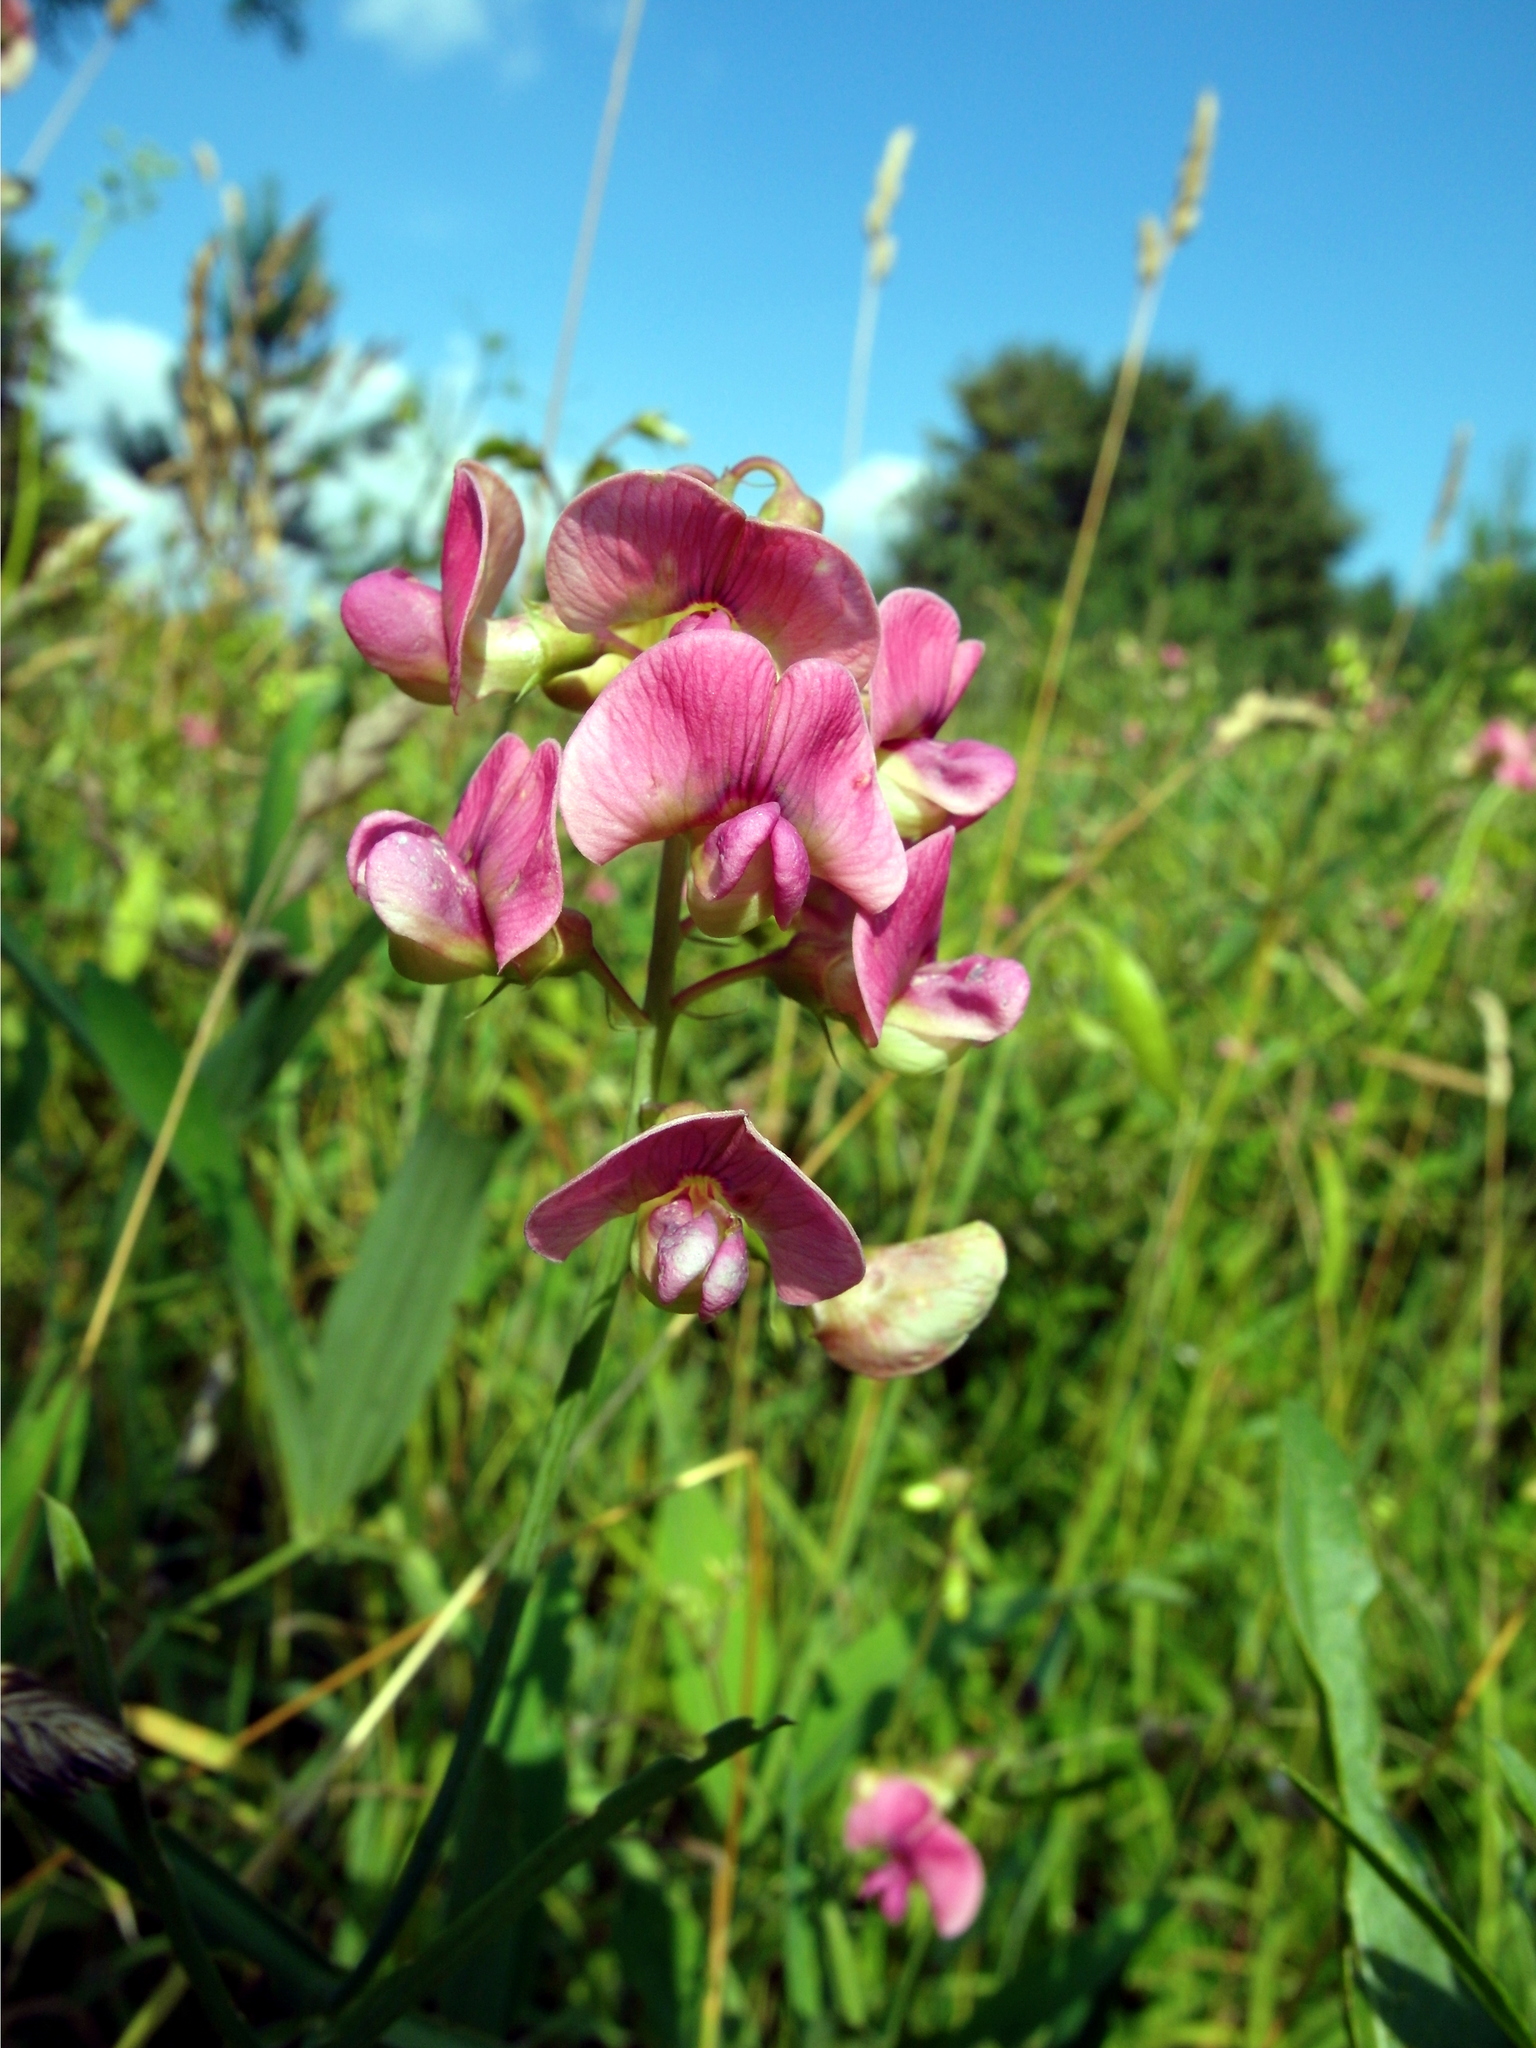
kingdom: Plantae
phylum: Tracheophyta
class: Magnoliopsida
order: Fabales
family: Fabaceae
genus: Lathyrus
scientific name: Lathyrus sylvestris
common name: Flat pea
